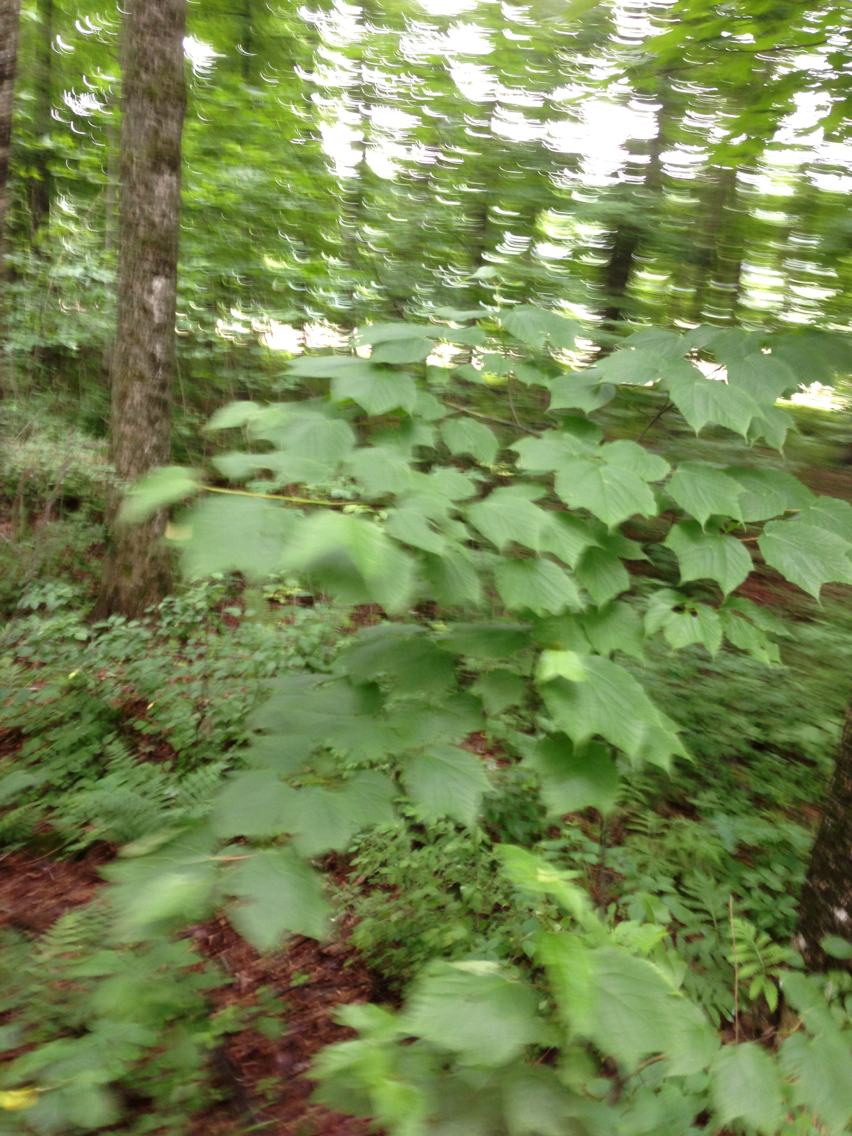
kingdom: Plantae
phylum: Tracheophyta
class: Magnoliopsida
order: Sapindales
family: Sapindaceae
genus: Acer
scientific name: Acer pensylvanicum
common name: Moosewood
